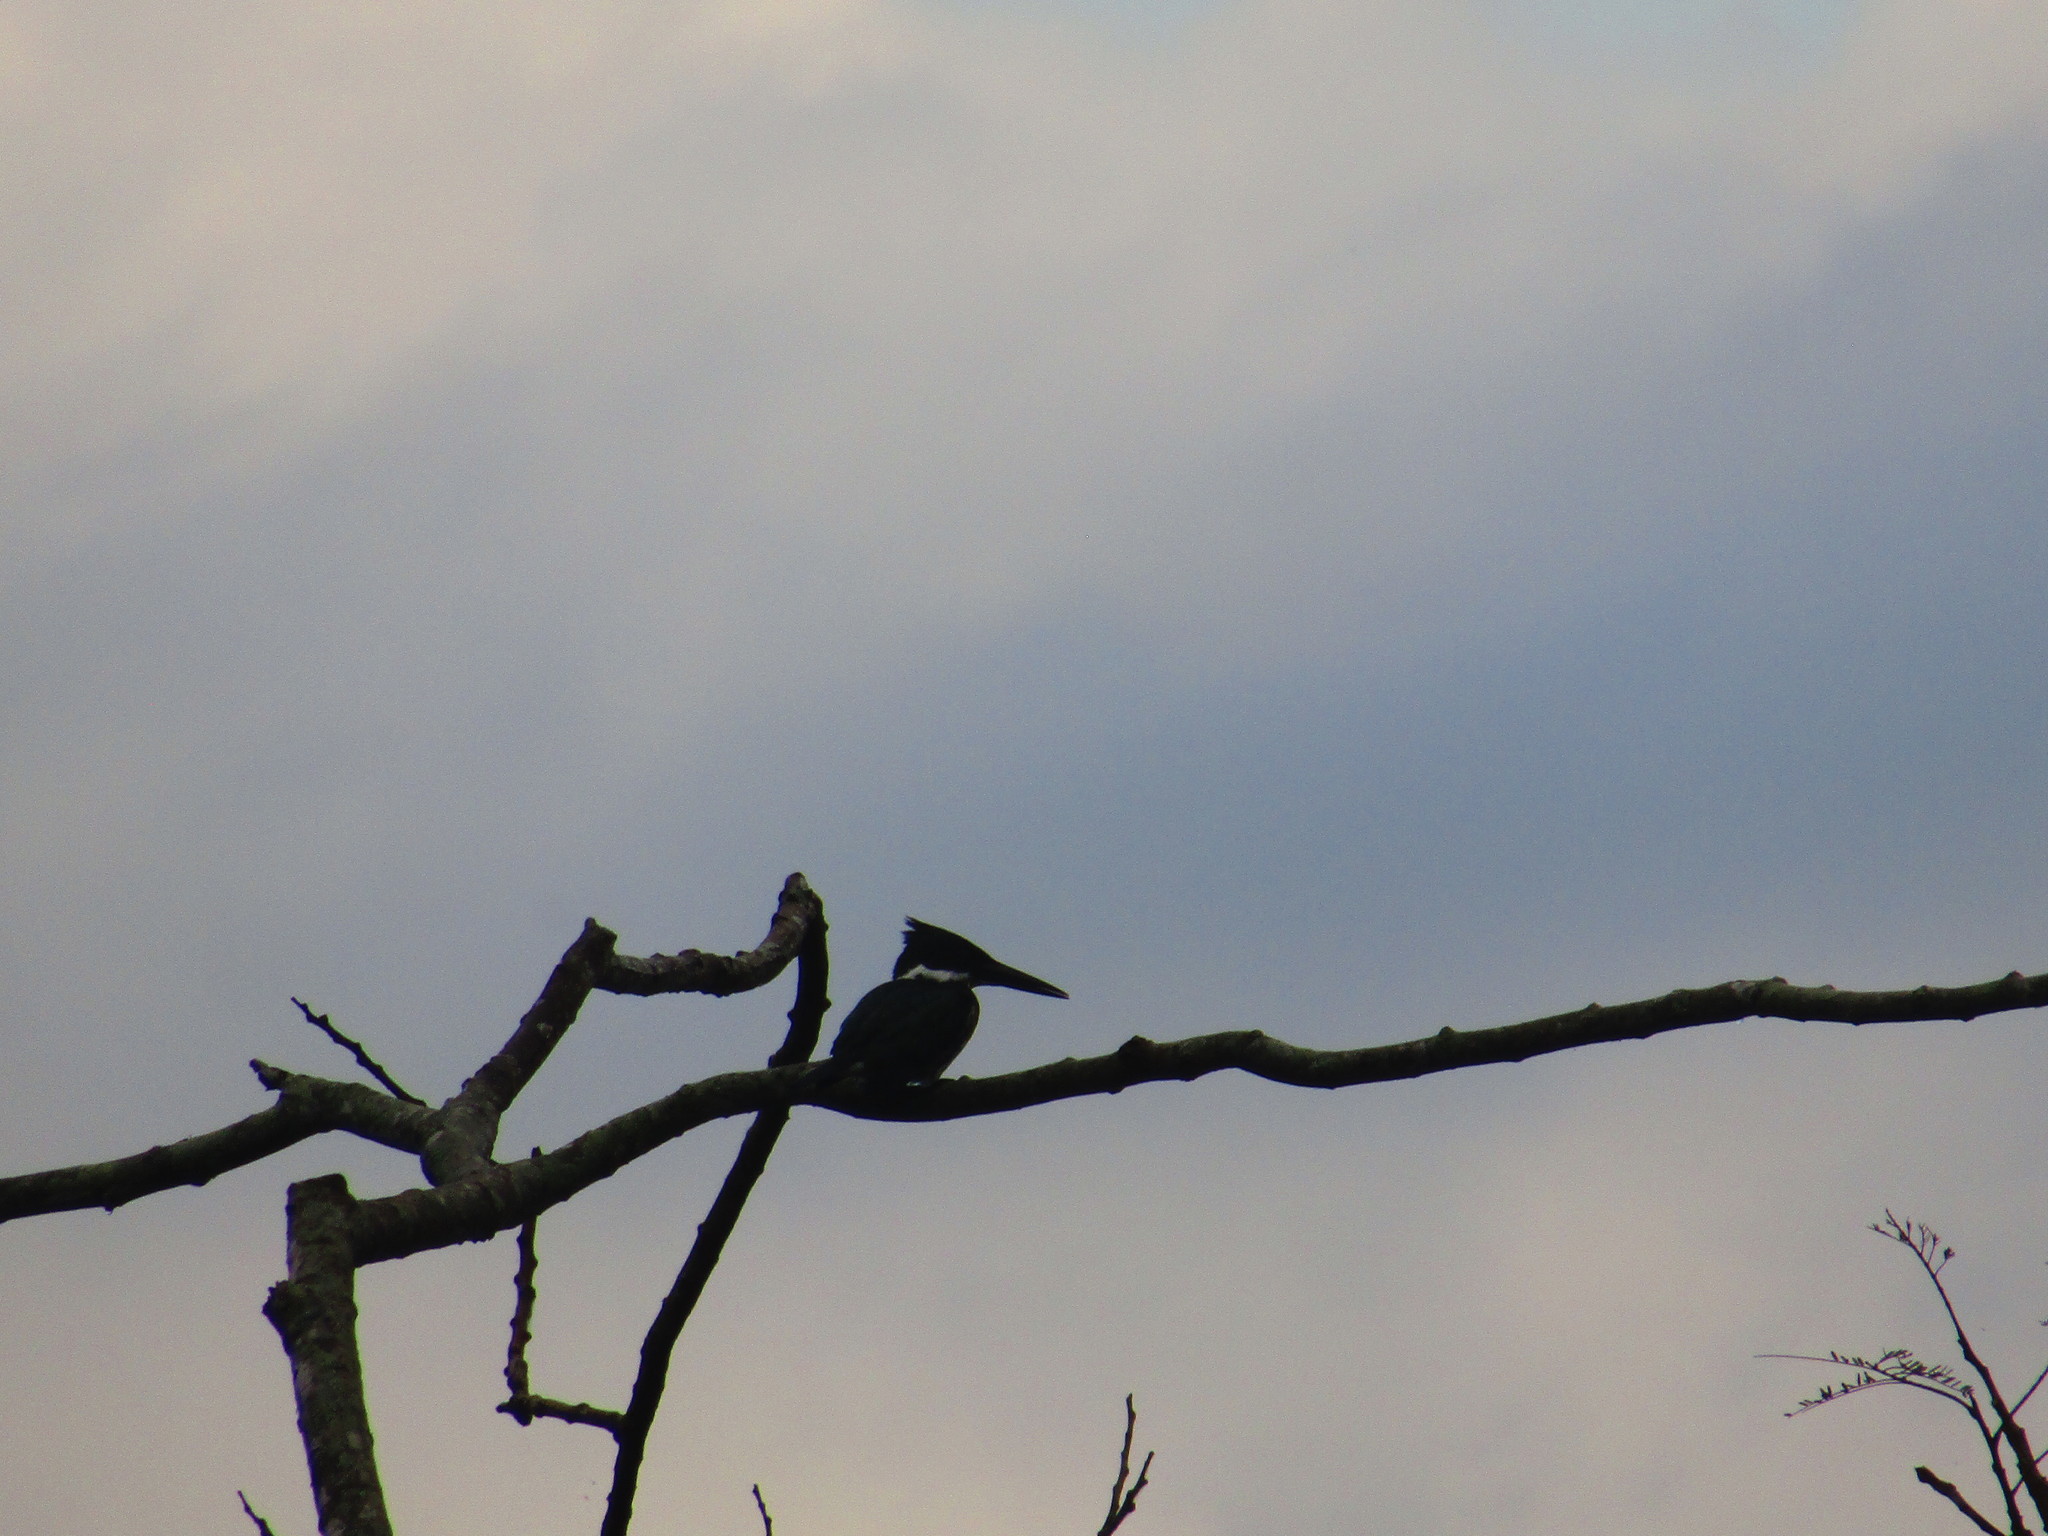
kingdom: Animalia
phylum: Chordata
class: Aves
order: Coraciiformes
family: Alcedinidae
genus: Chloroceryle
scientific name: Chloroceryle amazona
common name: Amazon kingfisher
